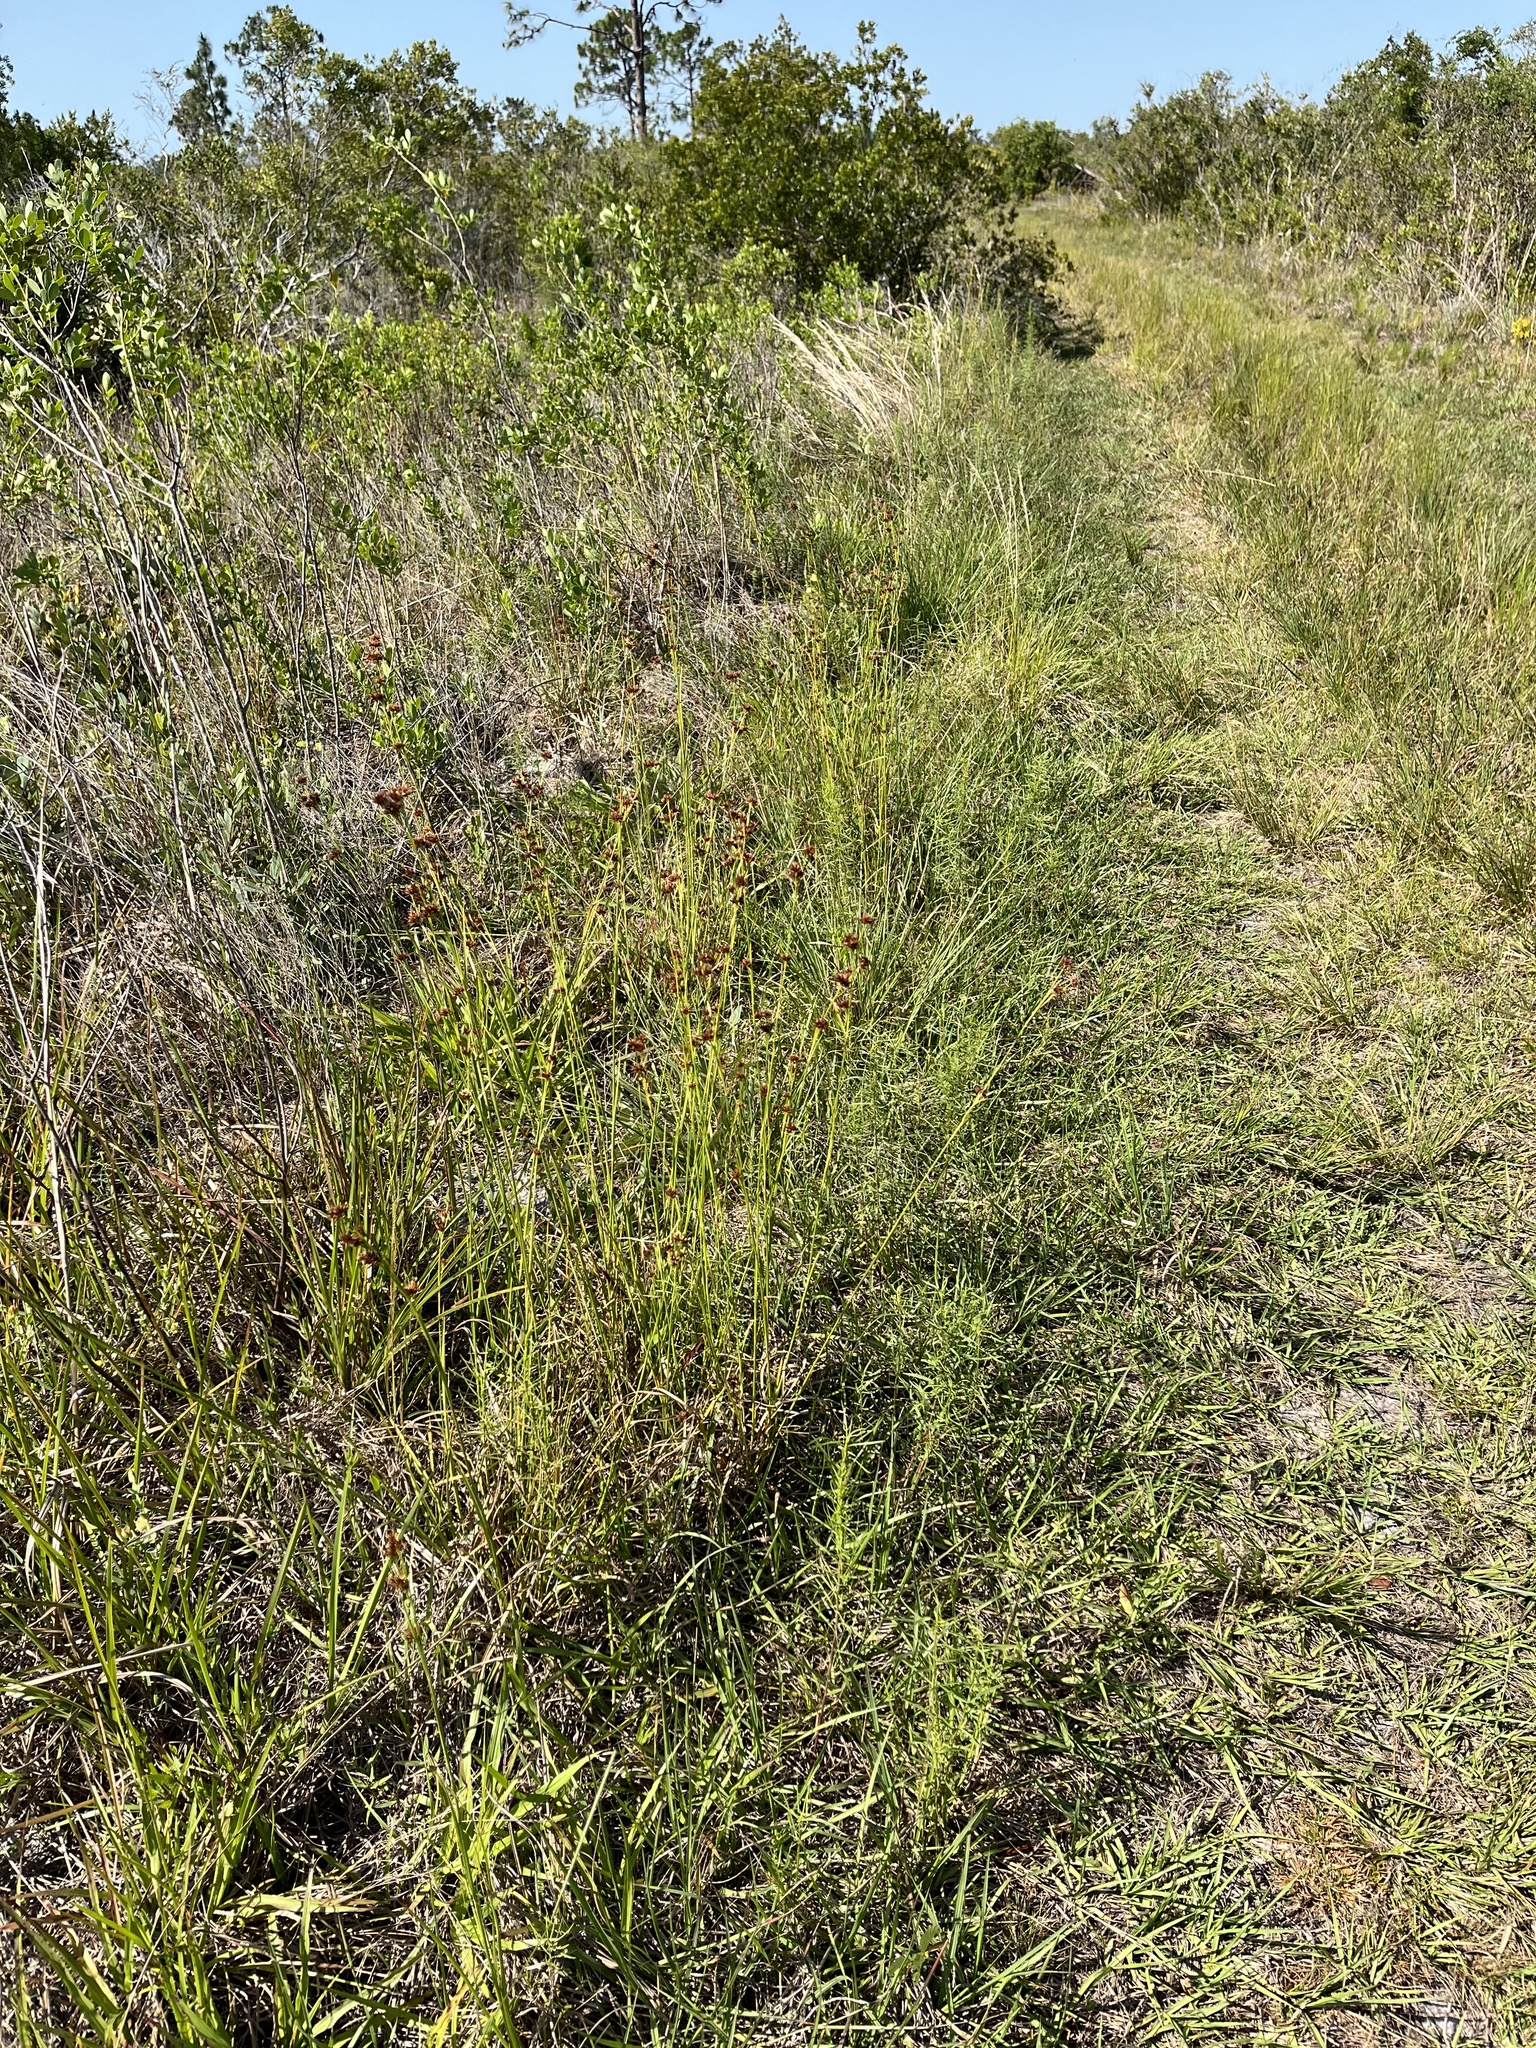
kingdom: Plantae
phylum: Tracheophyta
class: Liliopsida
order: Poales
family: Cyperaceae
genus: Rhynchospora
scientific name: Rhynchospora fascicularis
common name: Fascicled beak sedge
